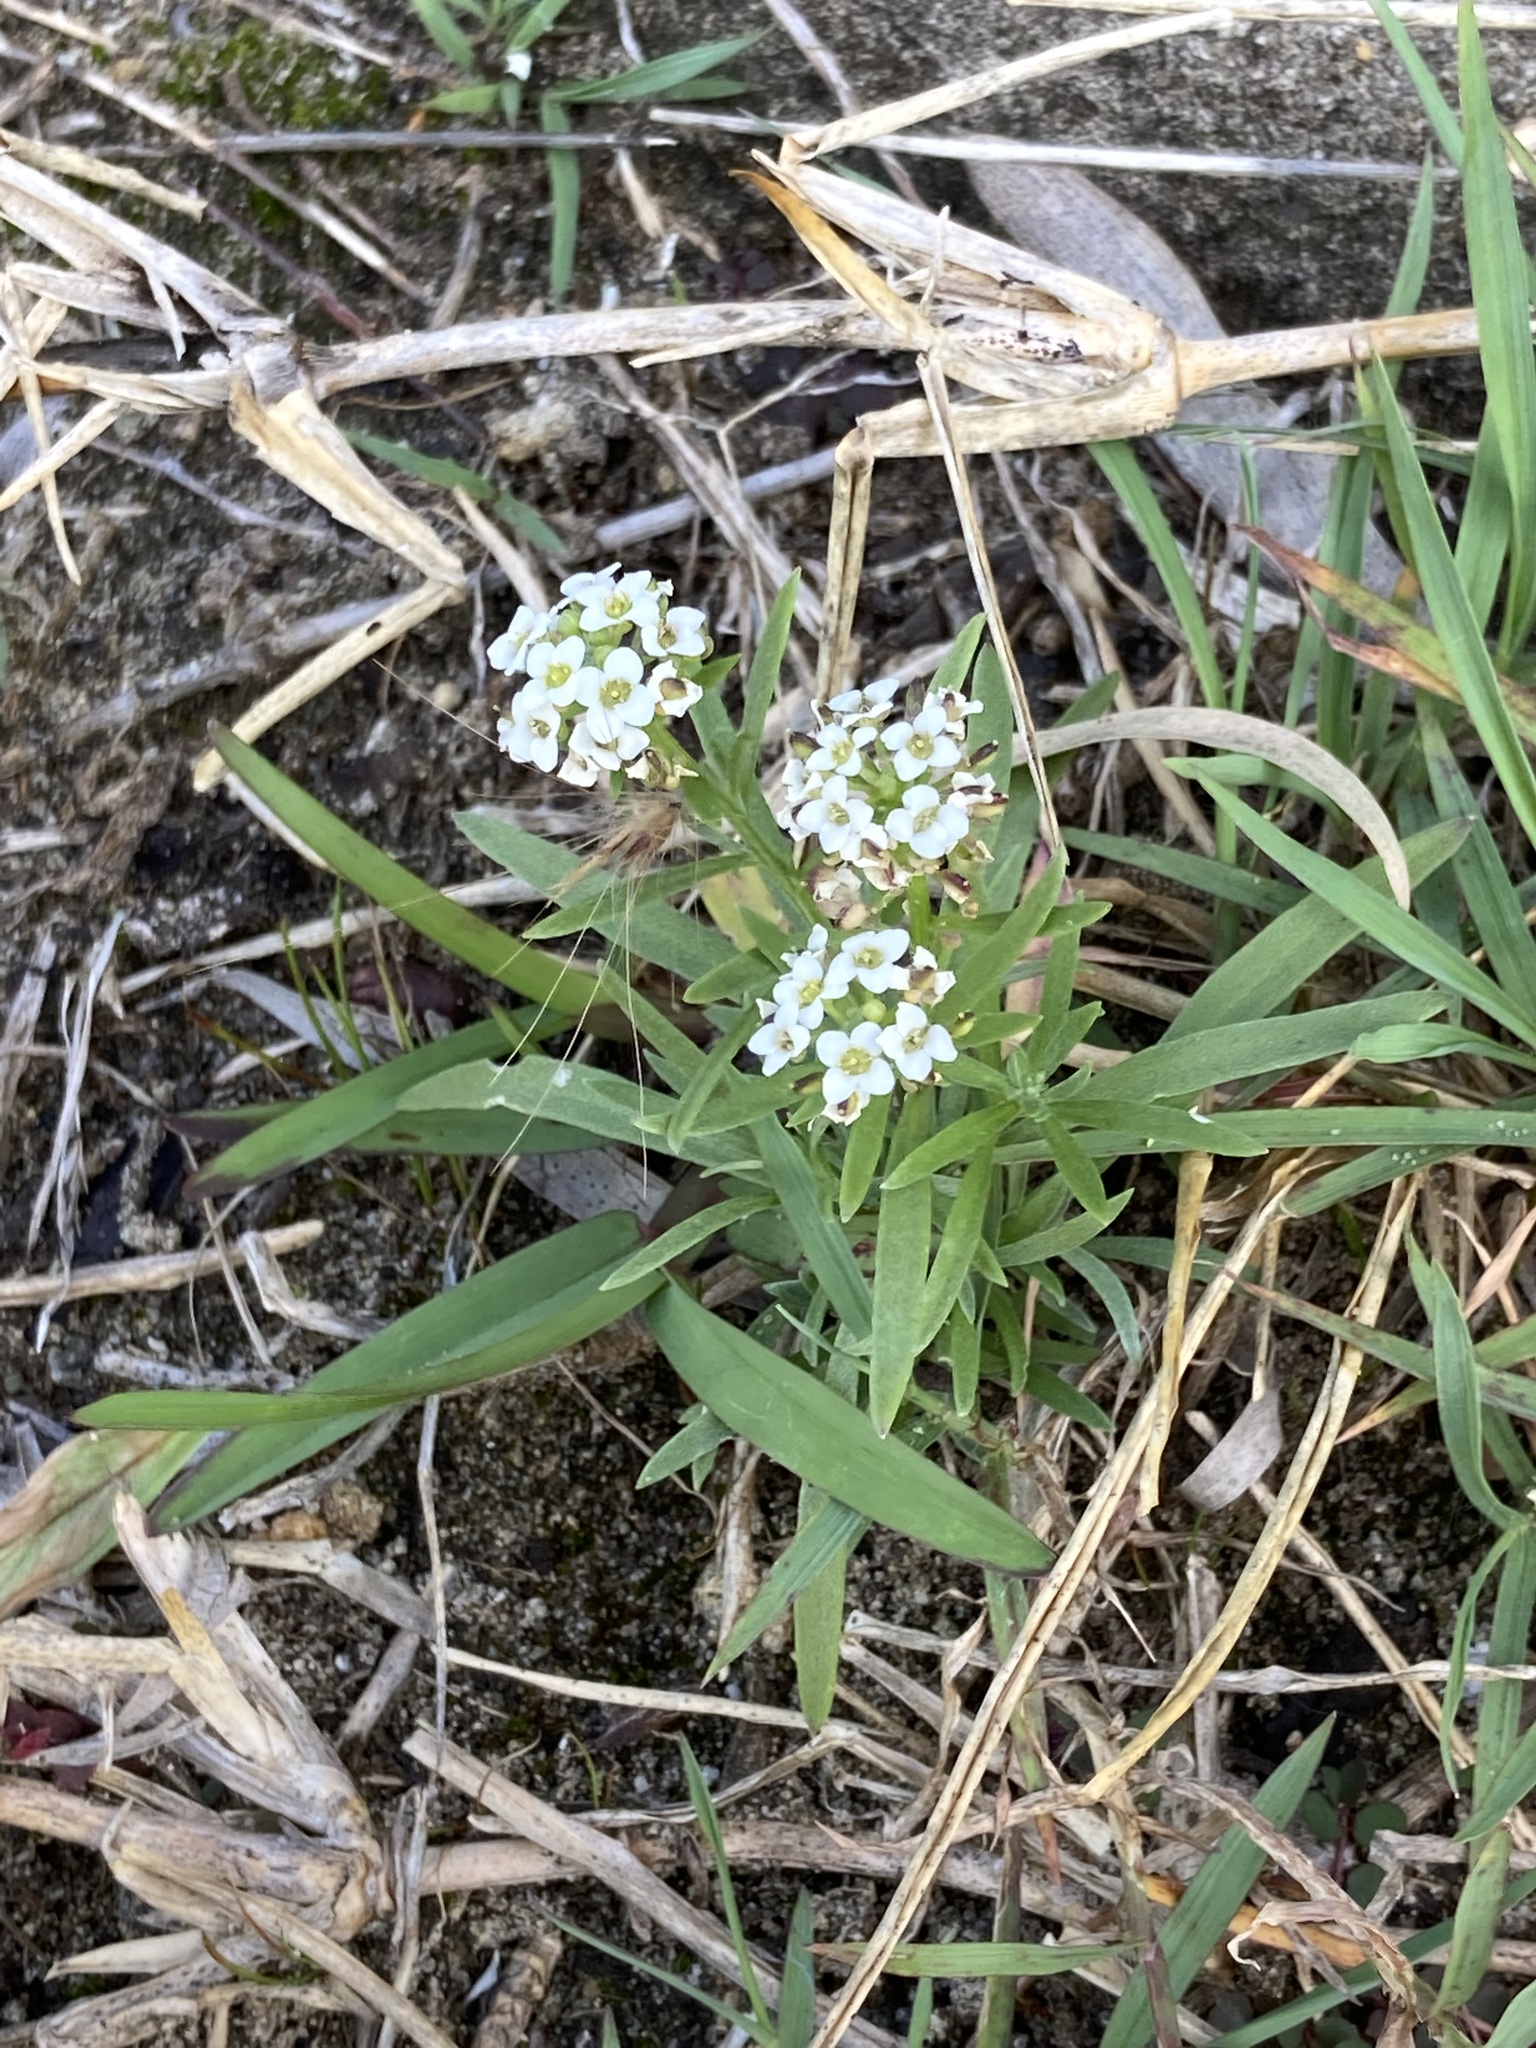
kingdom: Plantae
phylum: Tracheophyta
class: Magnoliopsida
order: Brassicales
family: Brassicaceae
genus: Lobularia
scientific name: Lobularia maritima
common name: Sweet alison
